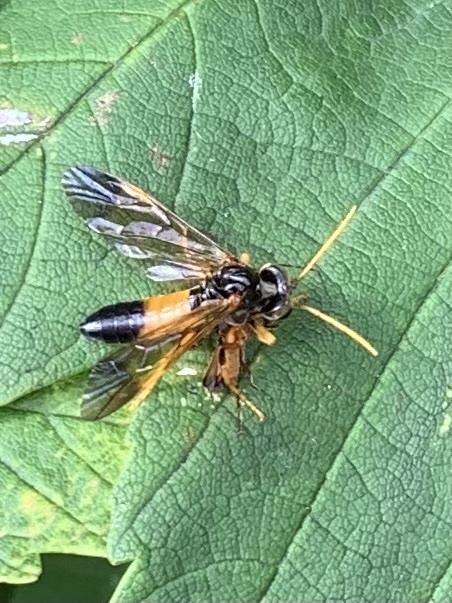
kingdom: Animalia
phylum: Arthropoda
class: Insecta
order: Hymenoptera
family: Tenthredinidae
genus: Tenthredo
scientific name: Tenthredo campestris
